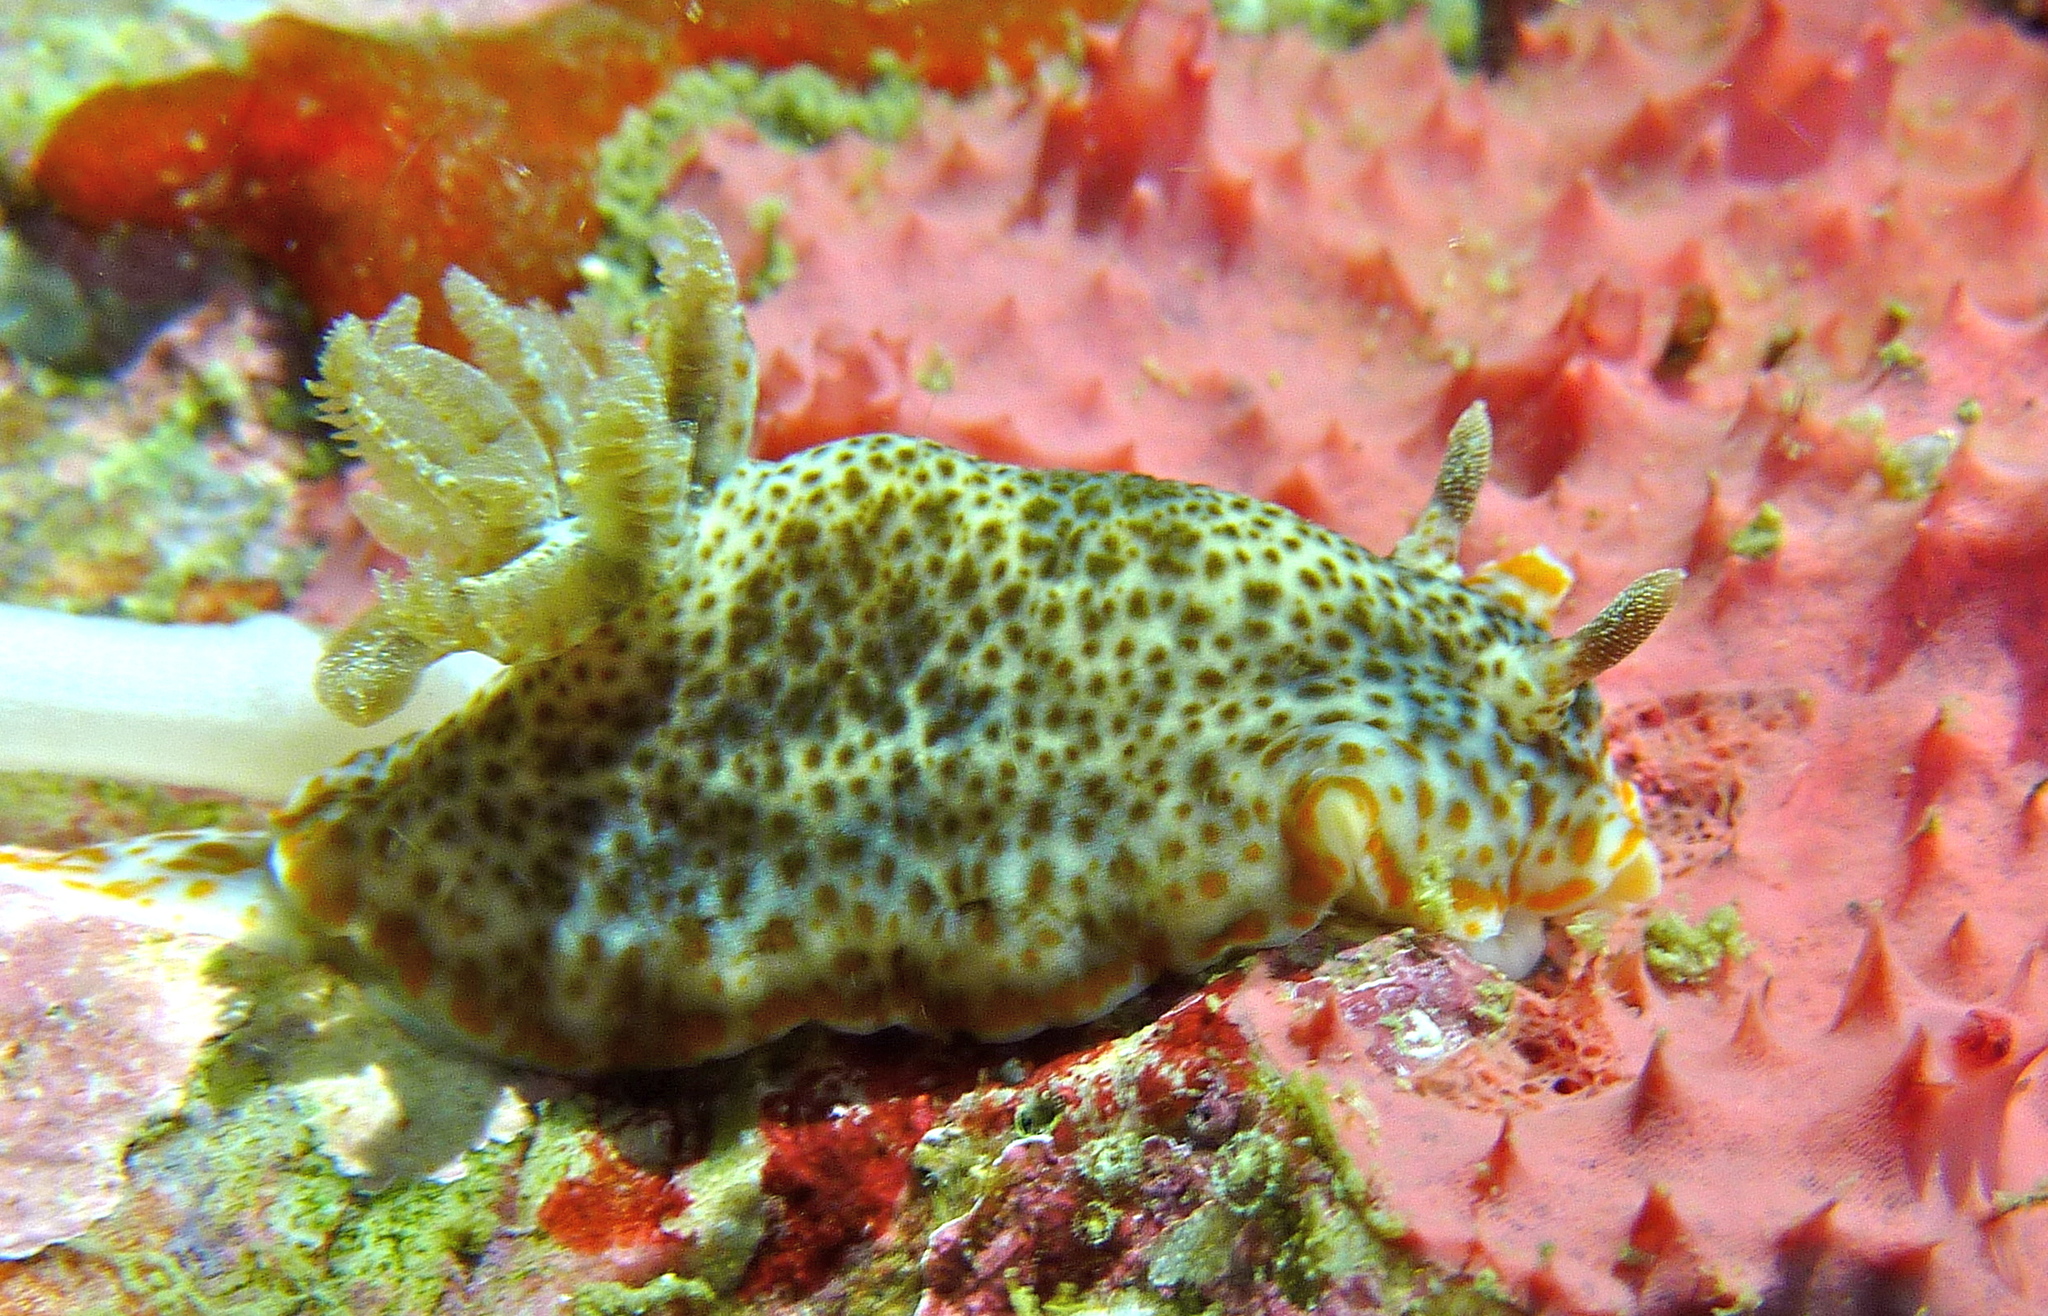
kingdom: Animalia
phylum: Mollusca
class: Gastropoda
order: Nudibranchia
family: Chromodorididae
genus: Chromodoris
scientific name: Chromodoris mandapamensis
